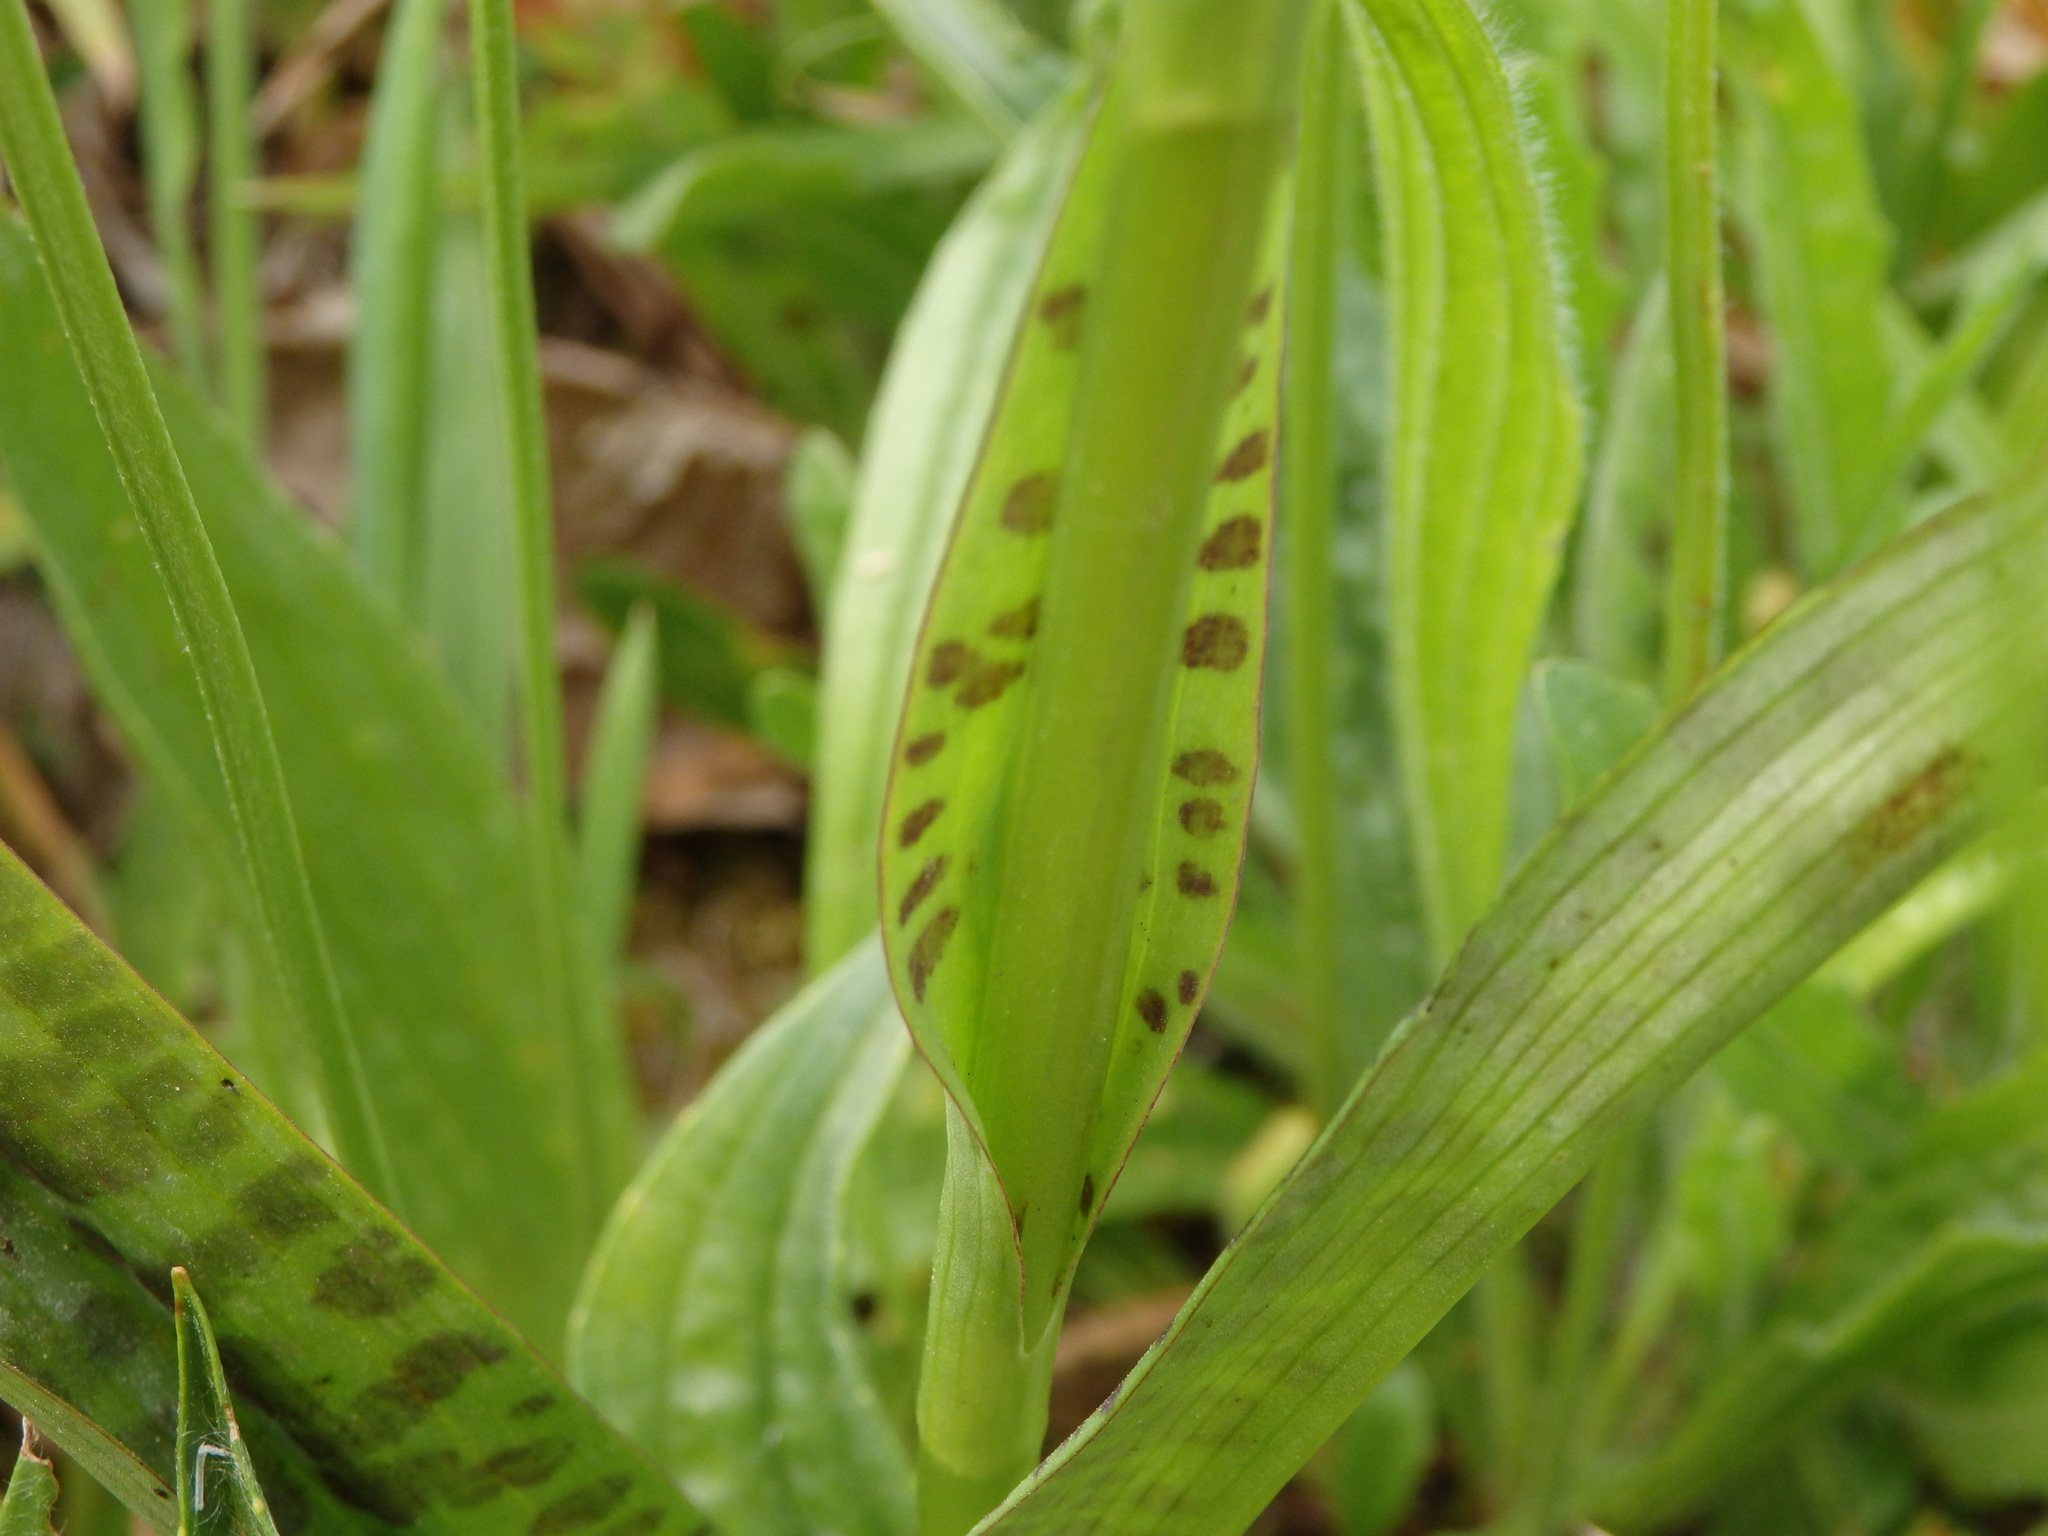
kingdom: Plantae
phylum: Tracheophyta
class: Liliopsida
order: Asparagales
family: Orchidaceae
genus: Dactylorhiza
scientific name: Dactylorhiza maculata
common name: Heath spotted-orchid
